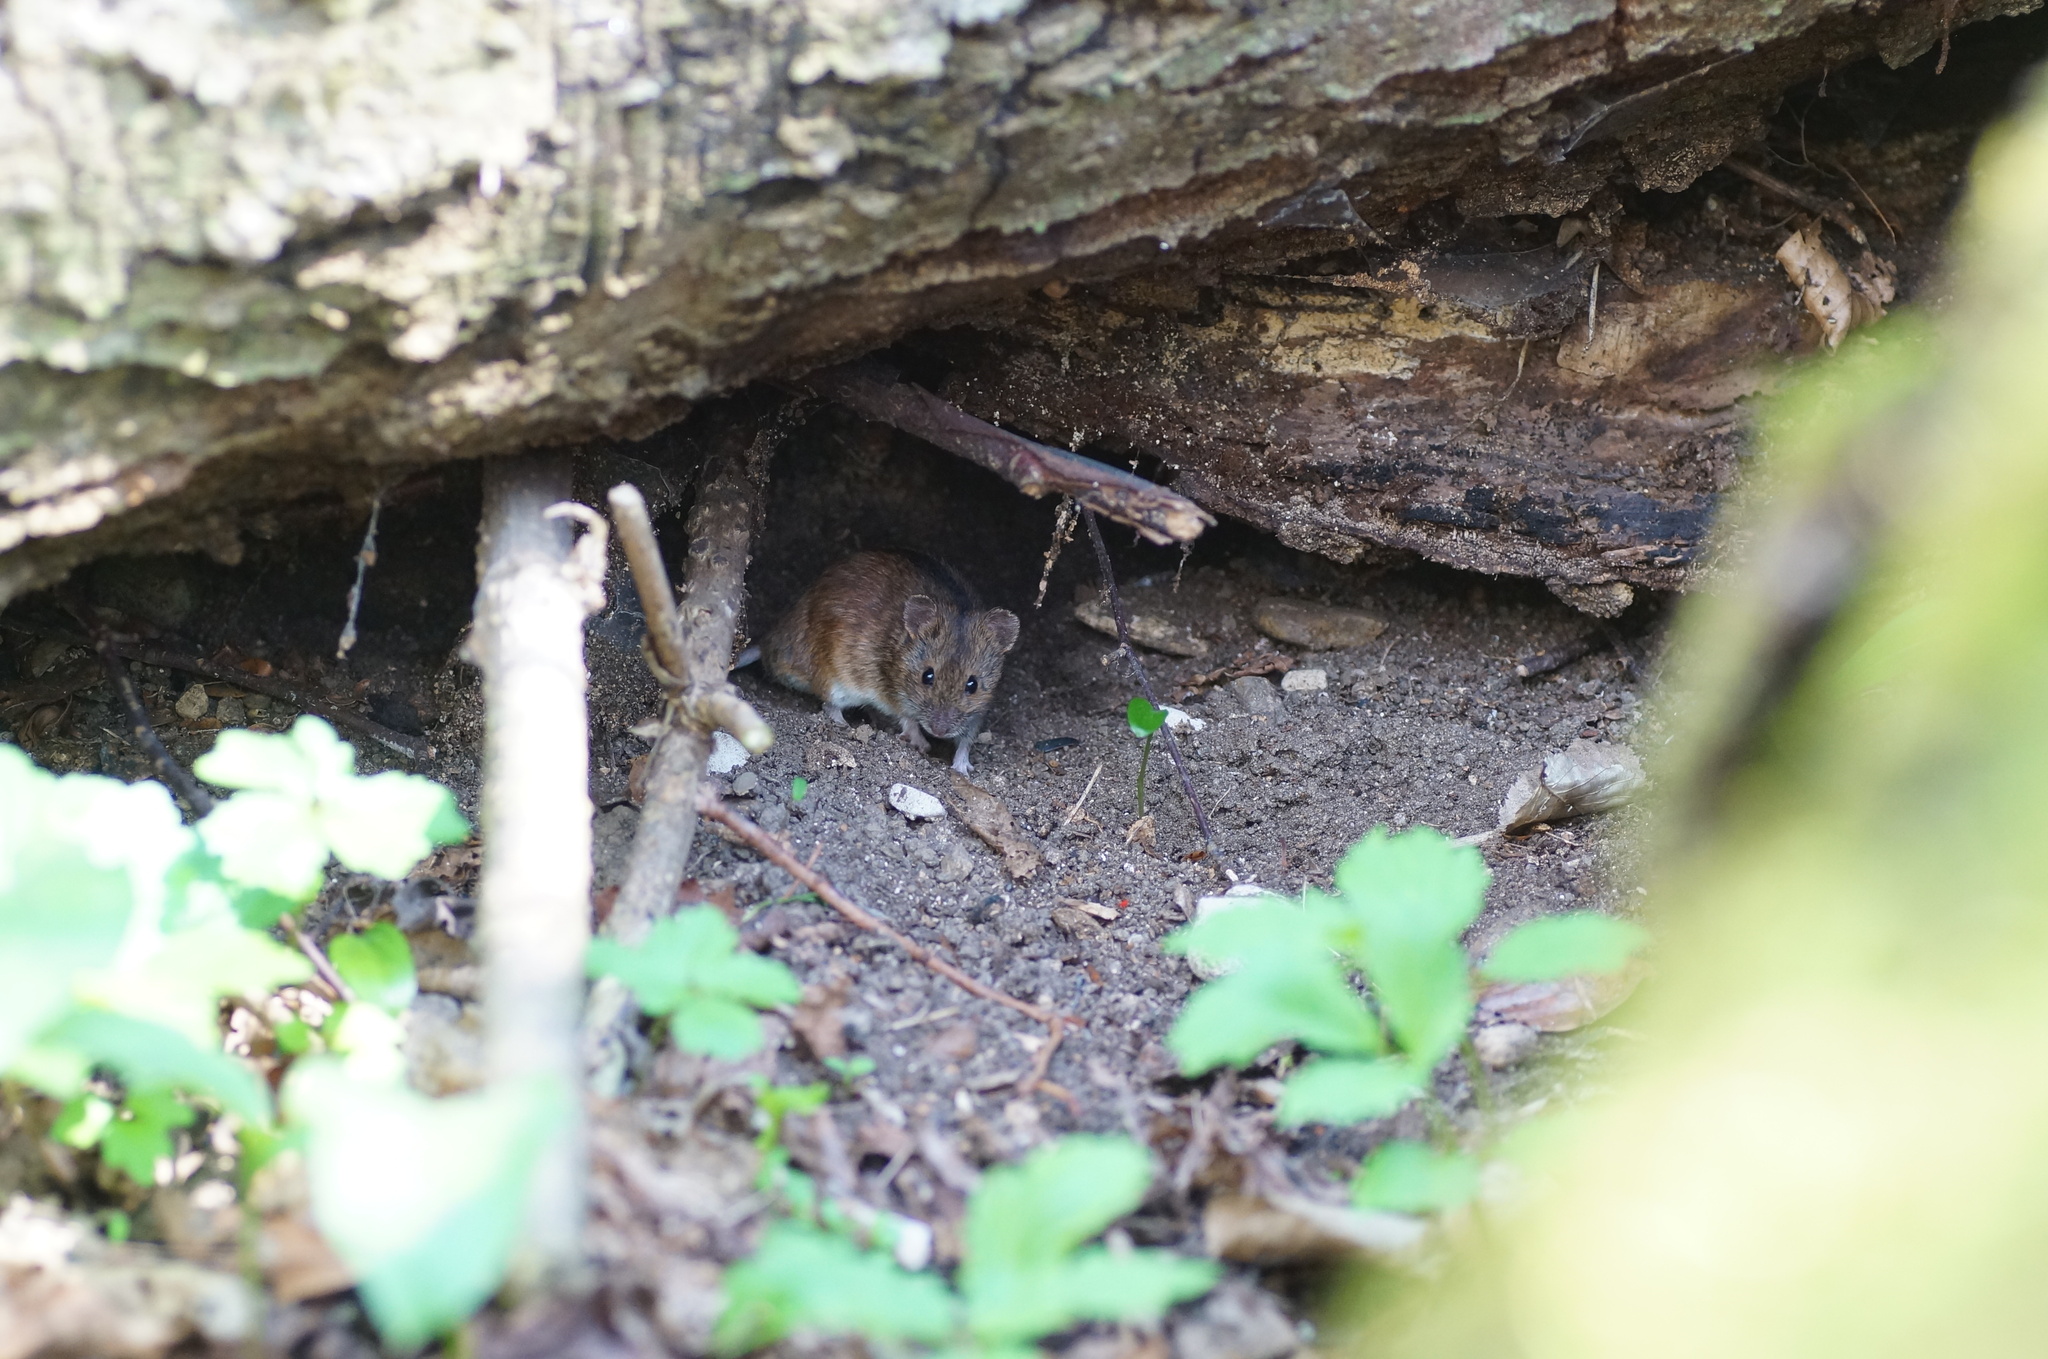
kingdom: Animalia
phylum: Chordata
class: Mammalia
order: Rodentia
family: Muridae
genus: Apodemus
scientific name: Apodemus agrarius
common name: Striped field mouse
